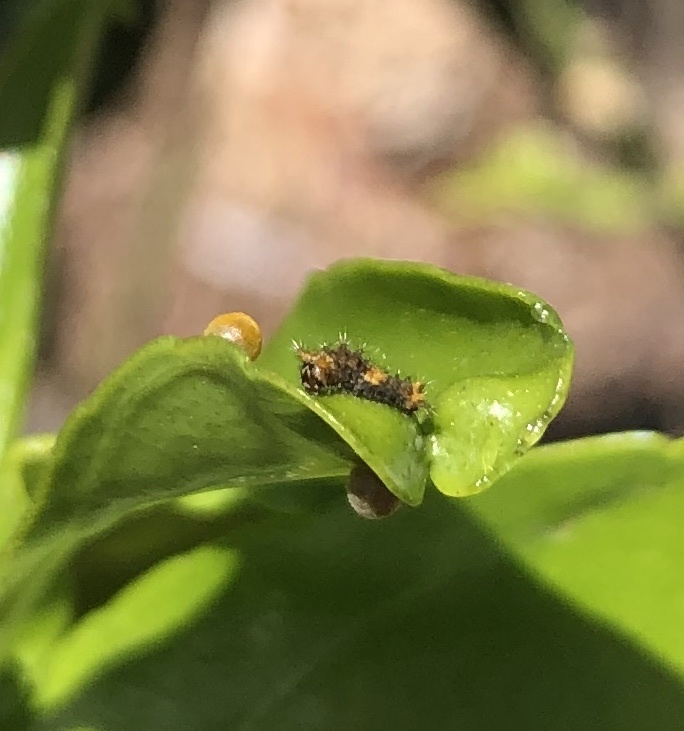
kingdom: Animalia
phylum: Arthropoda
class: Insecta
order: Lepidoptera
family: Papilionidae
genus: Papilio
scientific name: Papilio rumiko
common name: Western giant swallowtail
